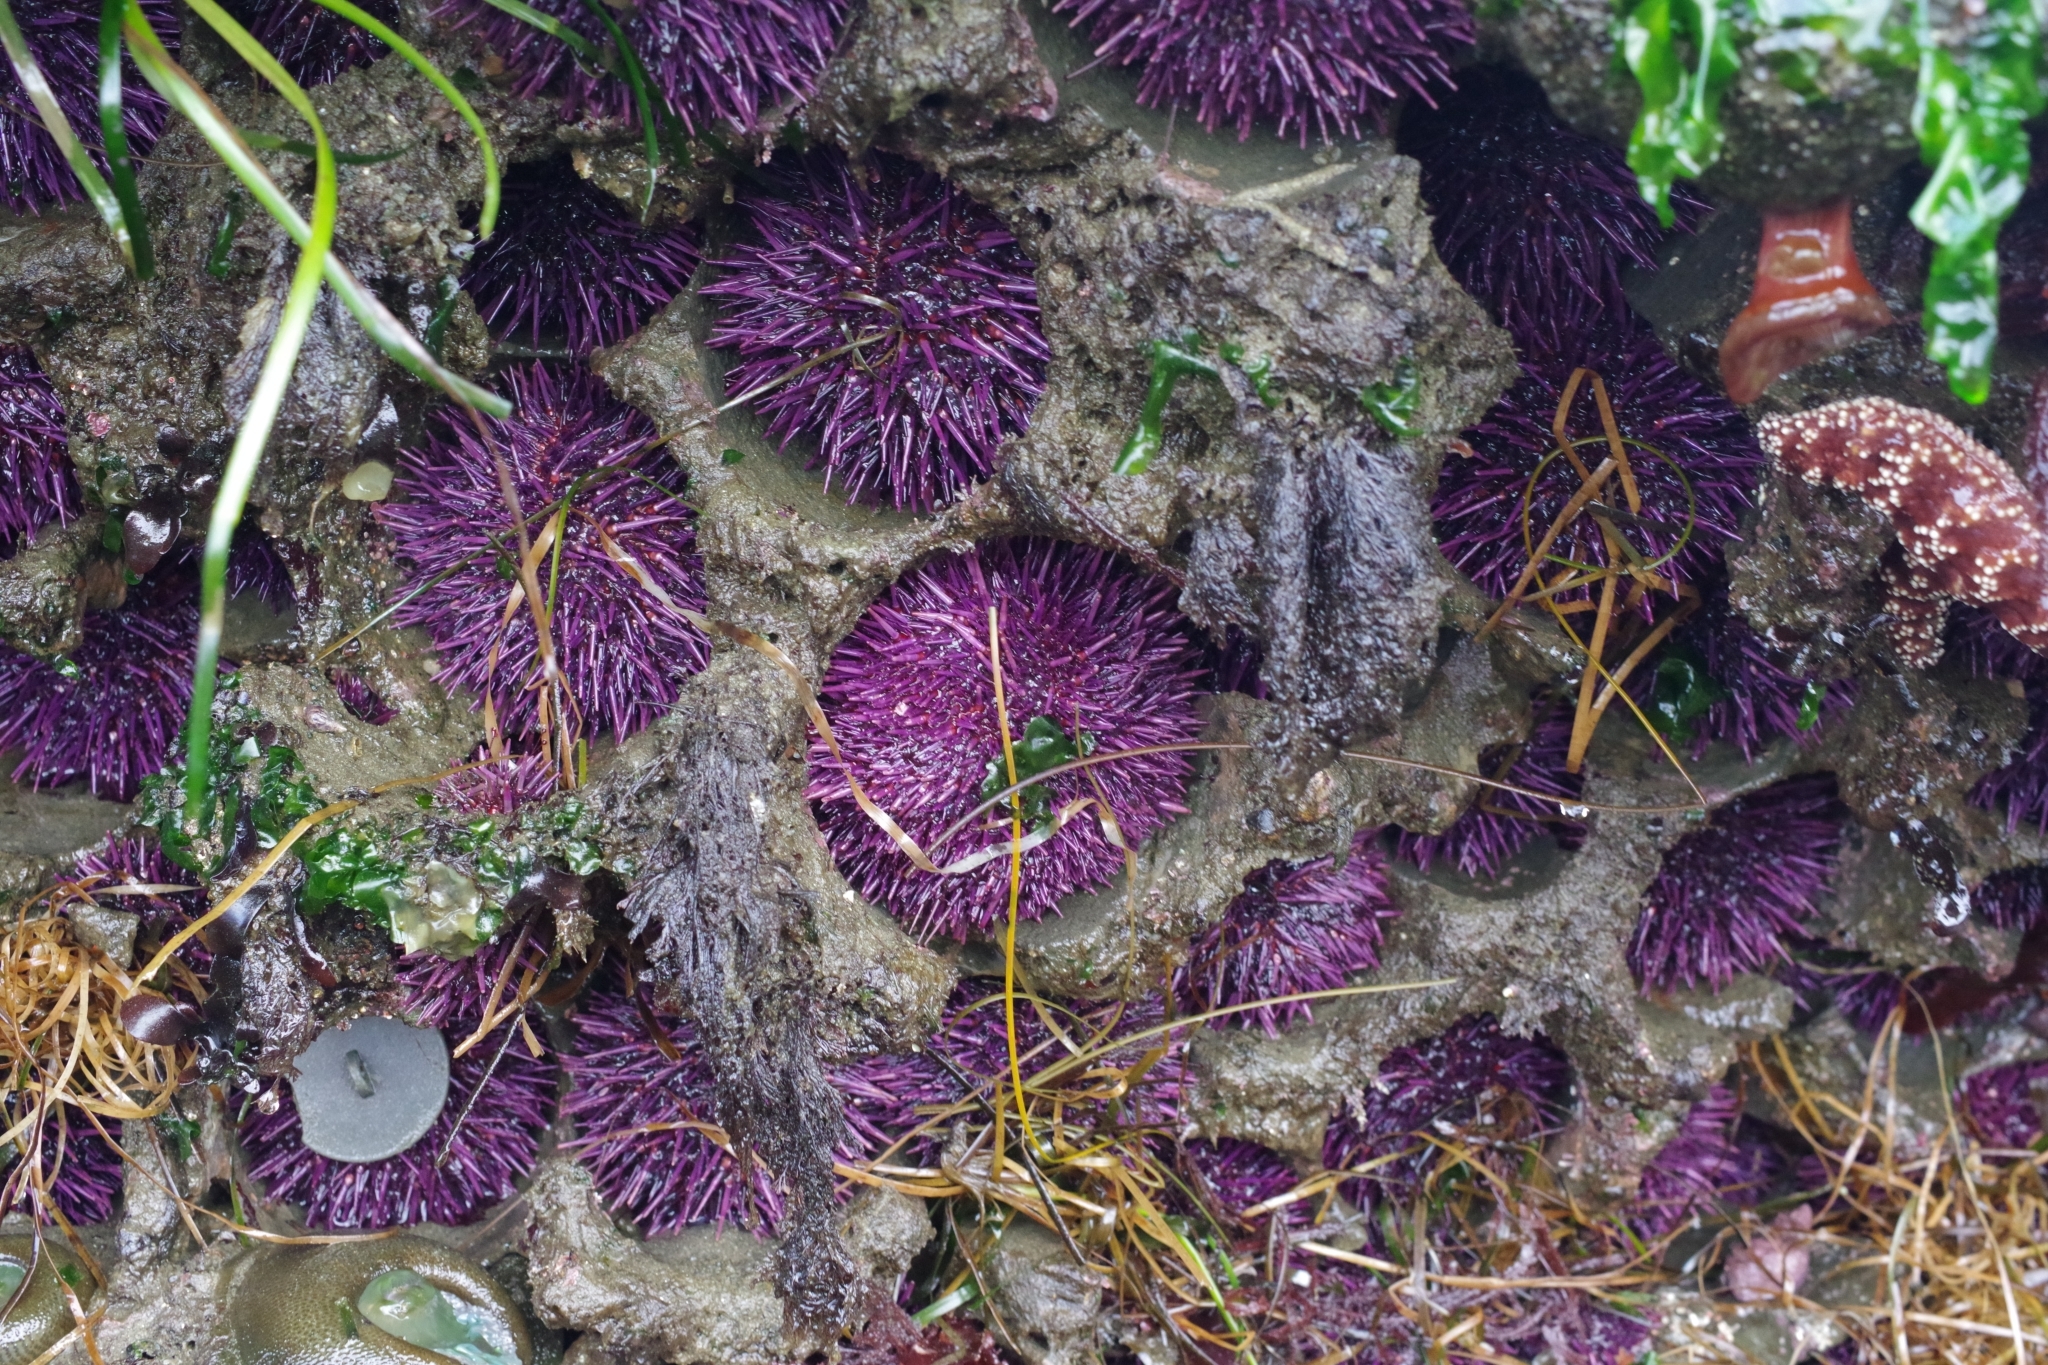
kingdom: Animalia
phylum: Echinodermata
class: Echinoidea
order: Camarodonta
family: Strongylocentrotidae
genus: Strongylocentrotus
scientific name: Strongylocentrotus purpuratus
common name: Purple sea urchin
